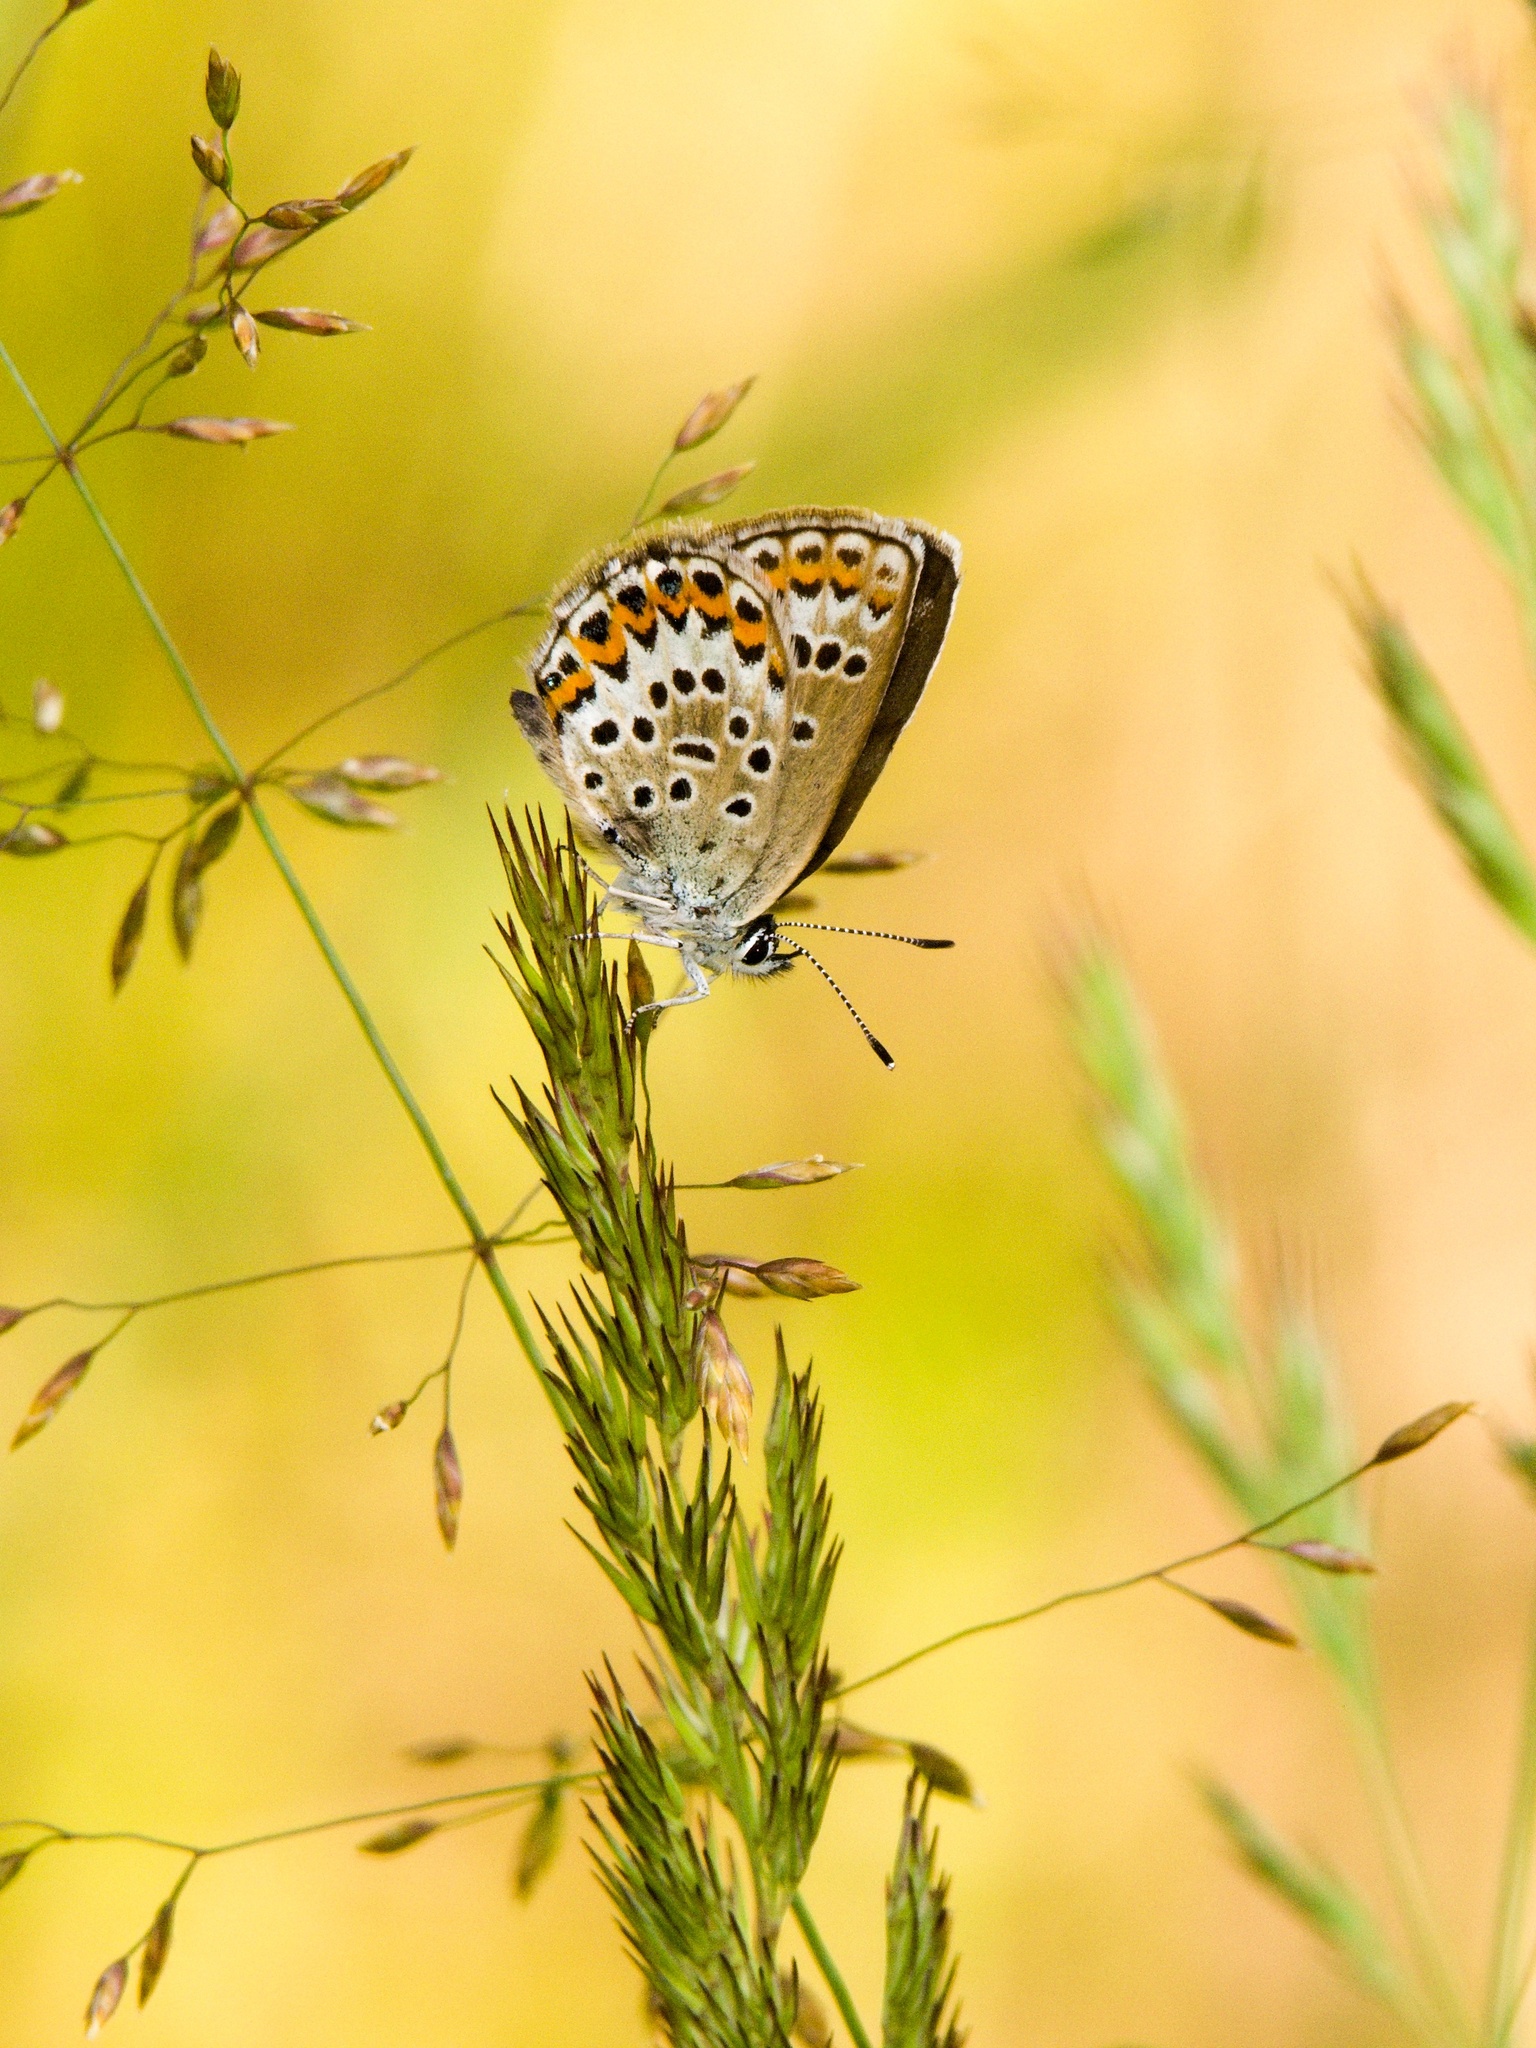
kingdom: Animalia
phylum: Arthropoda
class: Insecta
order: Lepidoptera
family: Lycaenidae
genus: Plebejus
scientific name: Plebejus argus
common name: Silver-studded blue
